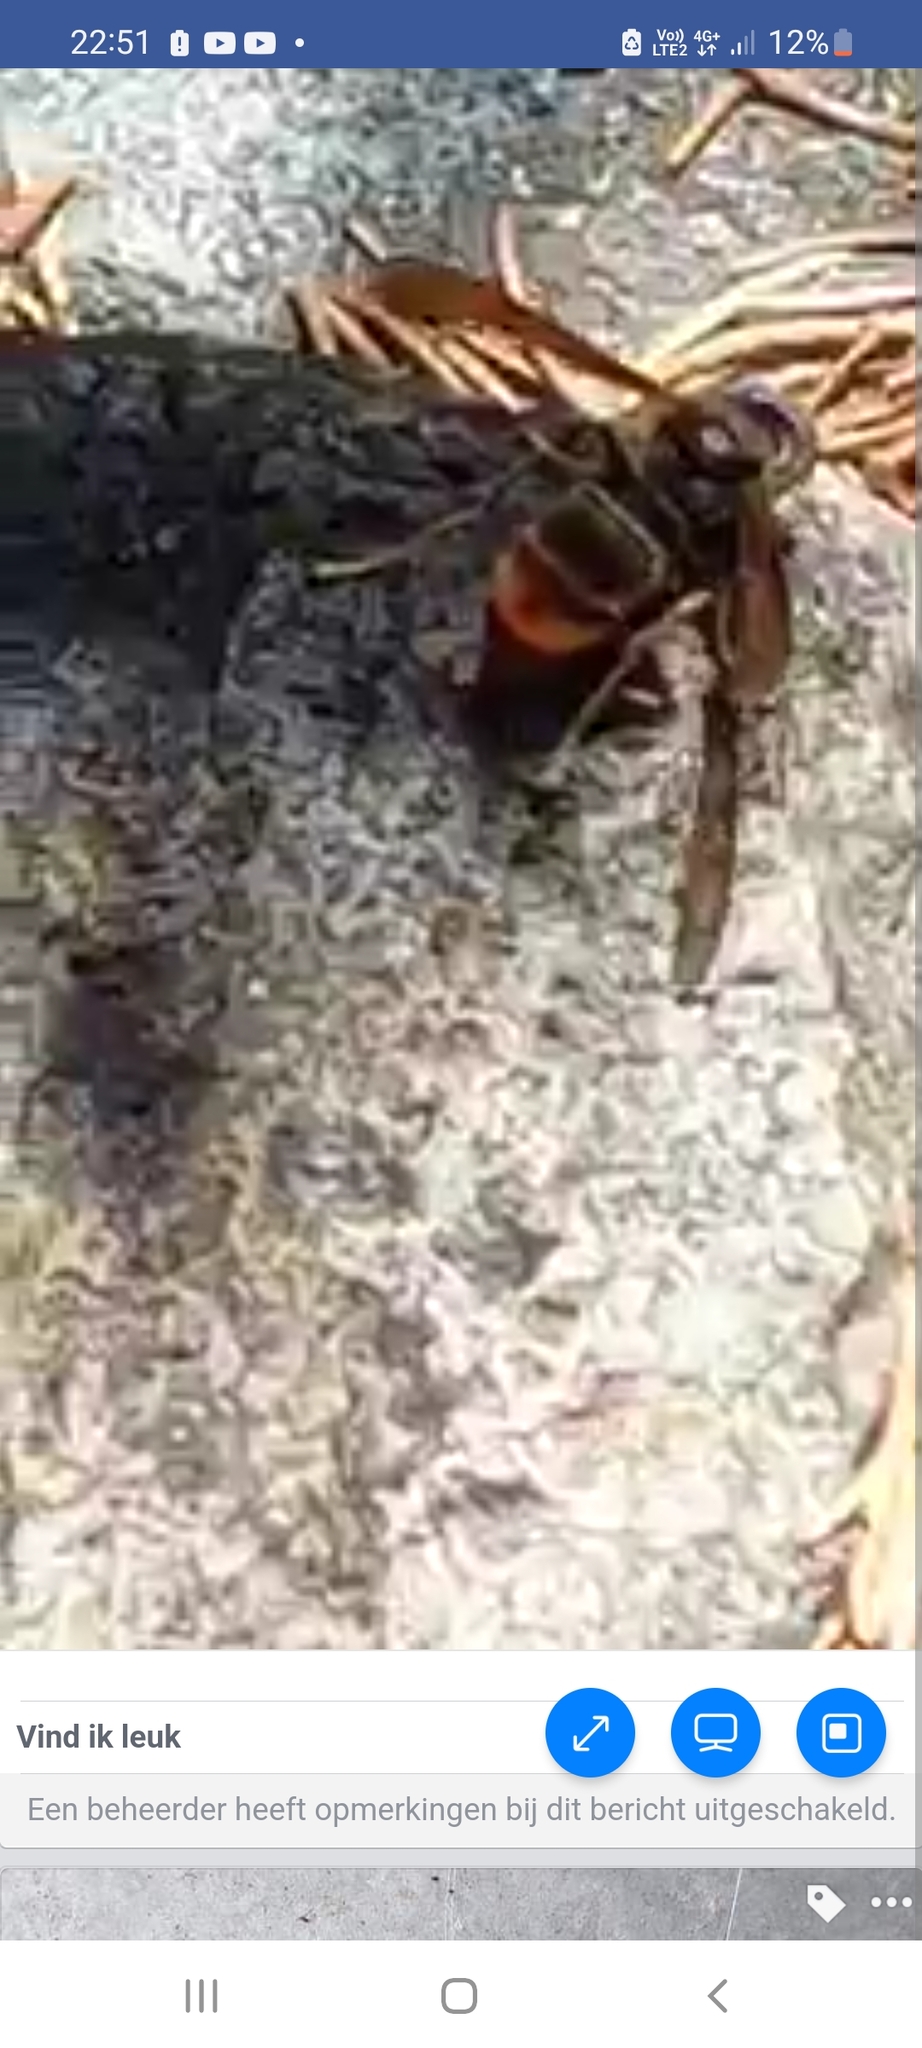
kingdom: Animalia
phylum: Arthropoda
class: Insecta
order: Hymenoptera
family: Vespidae
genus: Vespa
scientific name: Vespa velutina
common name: Asian hornet
